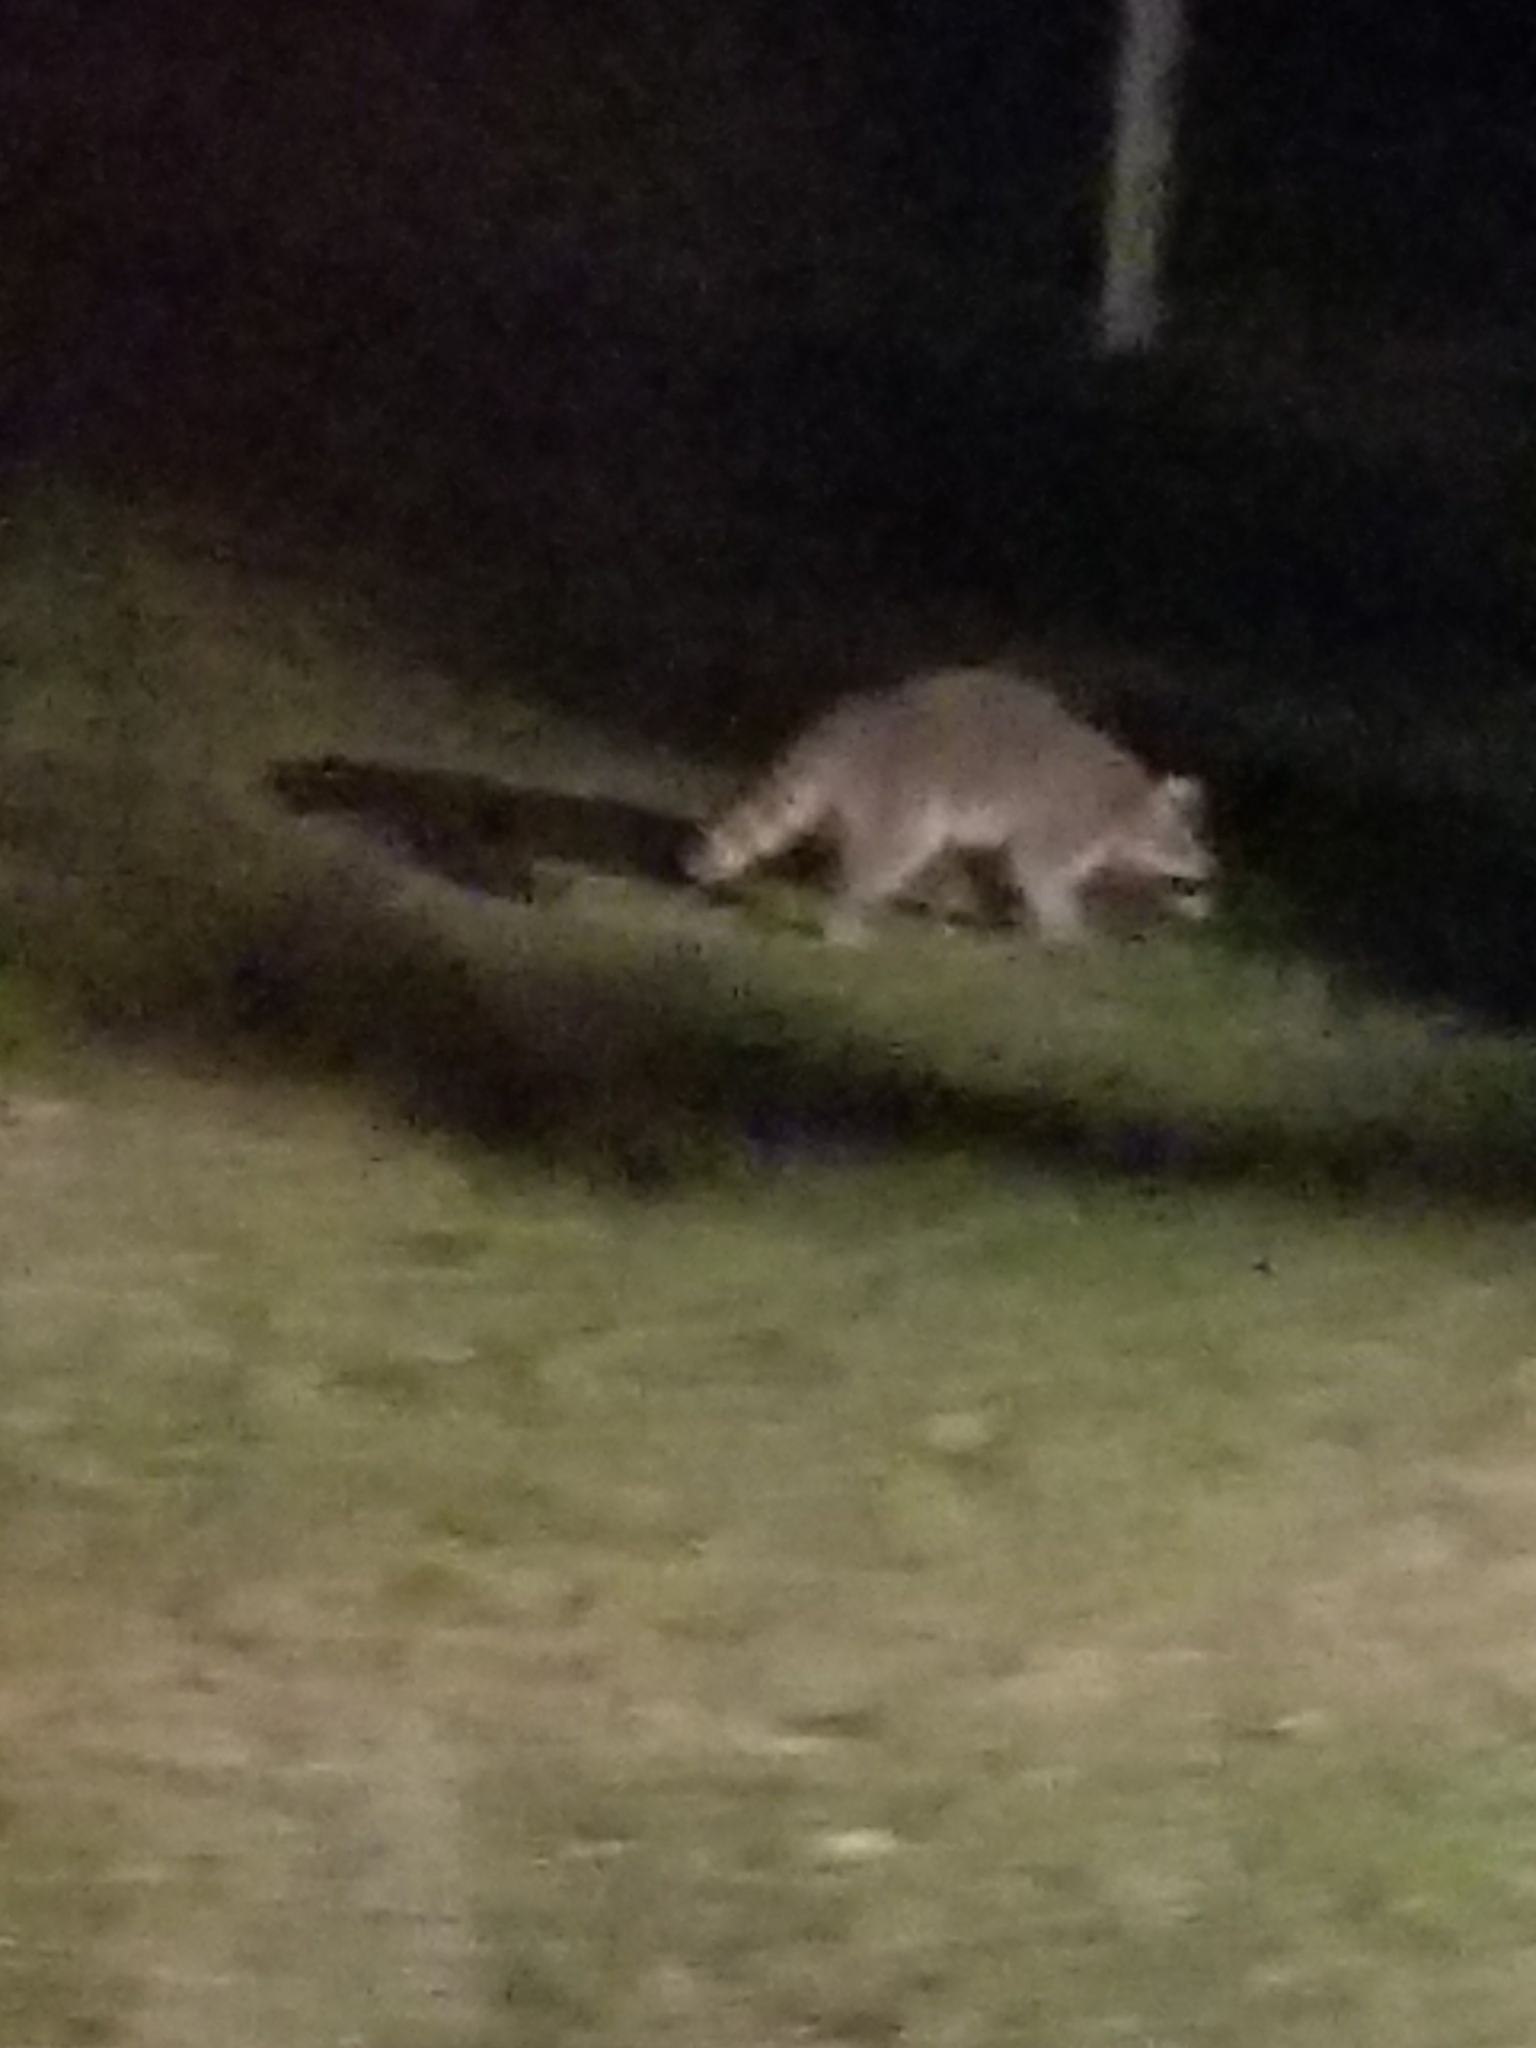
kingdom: Animalia
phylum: Chordata
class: Mammalia
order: Carnivora
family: Procyonidae
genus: Procyon
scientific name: Procyon lotor
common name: Raccoon
